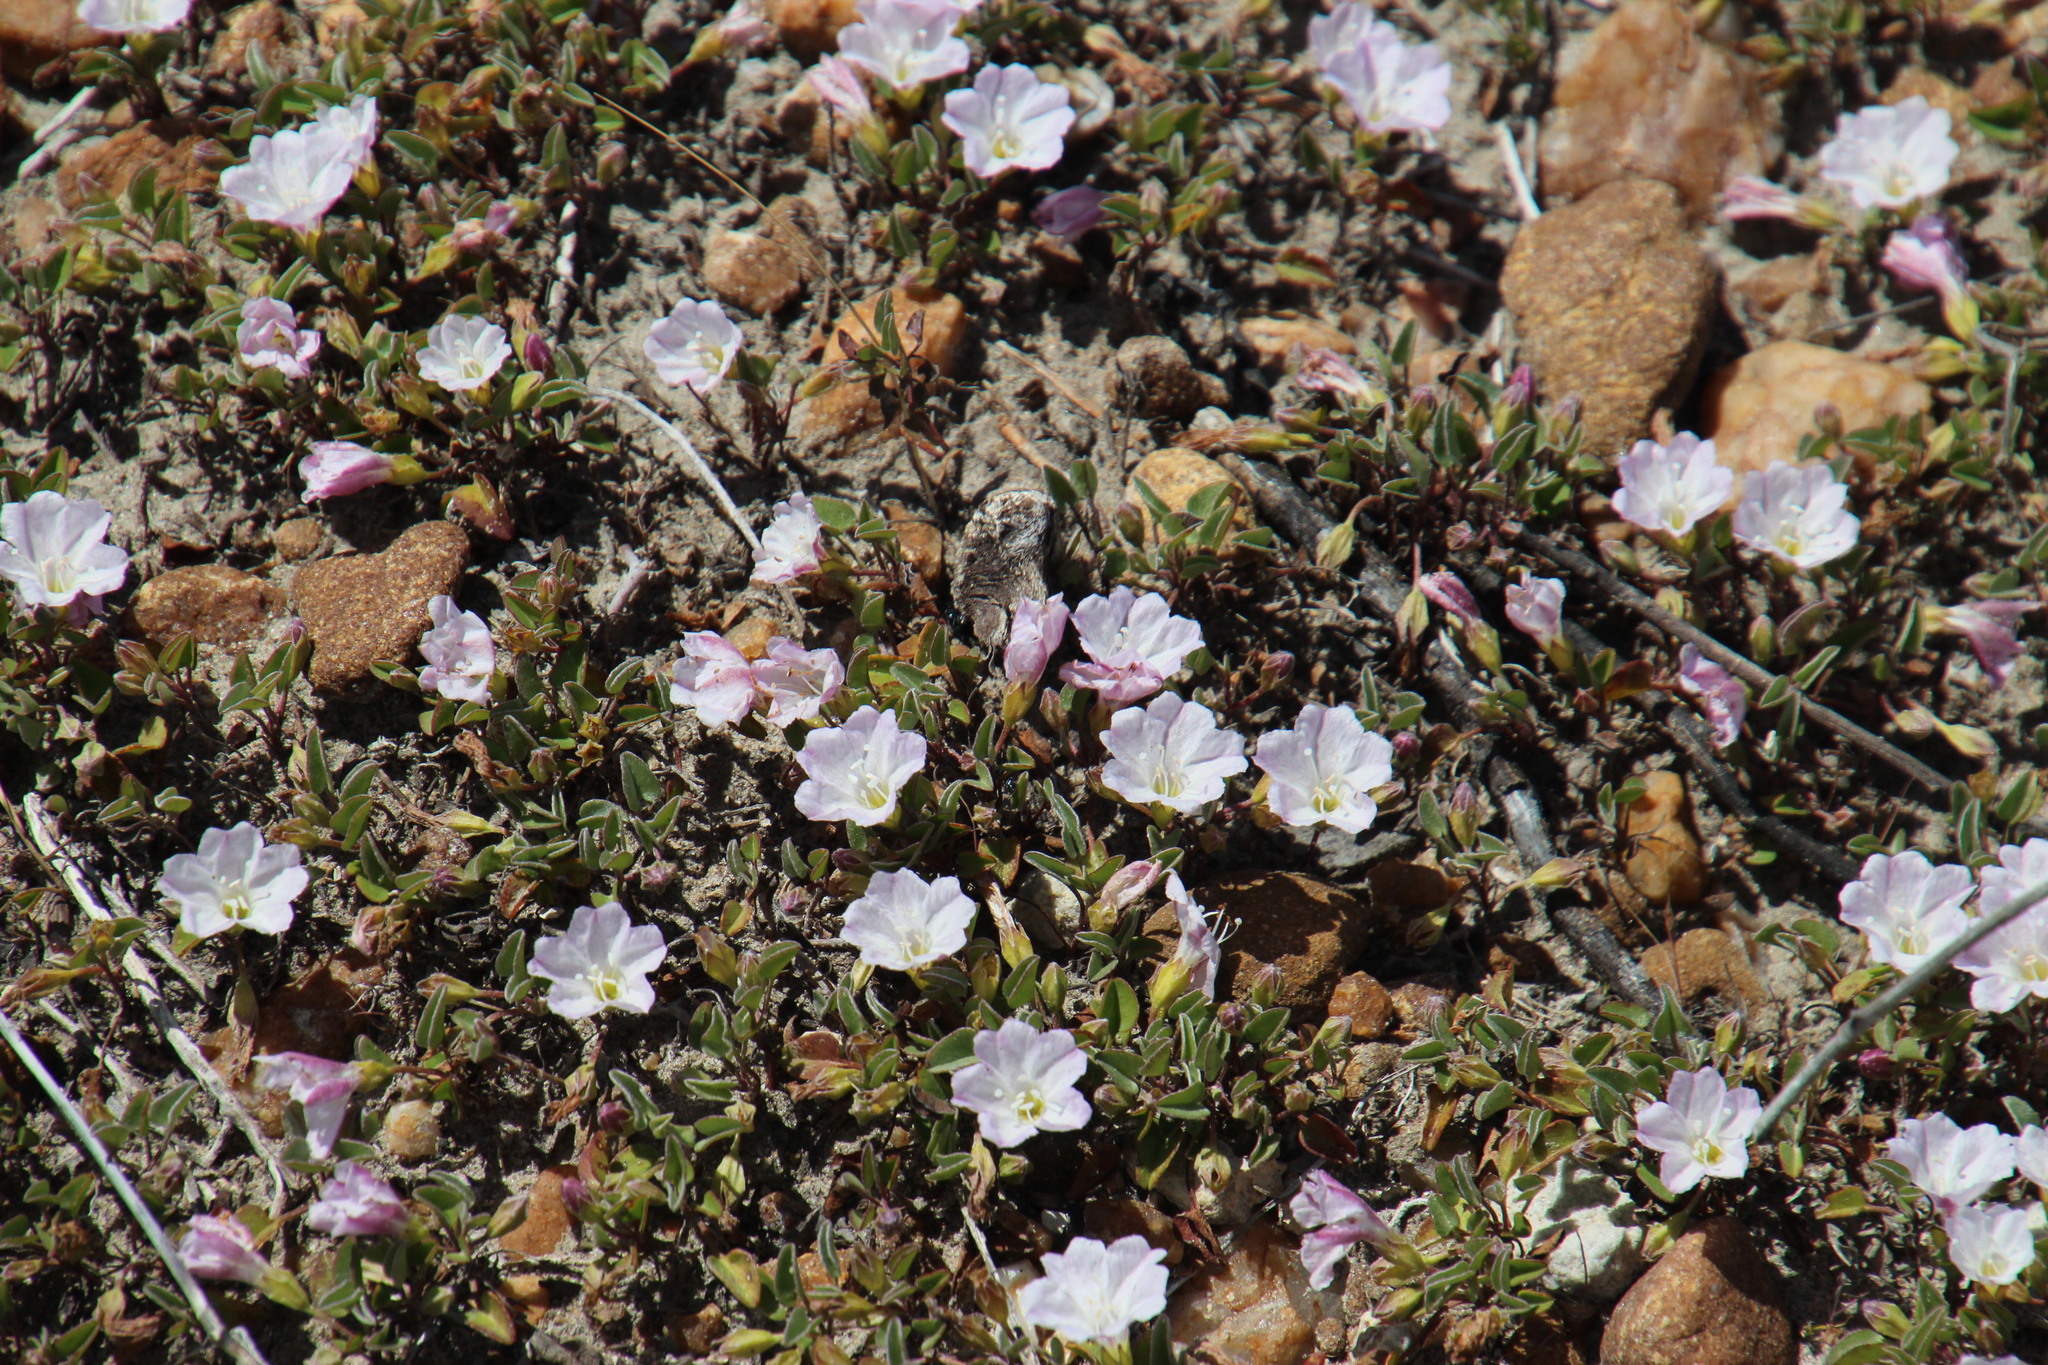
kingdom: Plantae
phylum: Tracheophyta
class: Magnoliopsida
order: Solanales
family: Convolvulaceae
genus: Falkia
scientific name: Falkia repens
